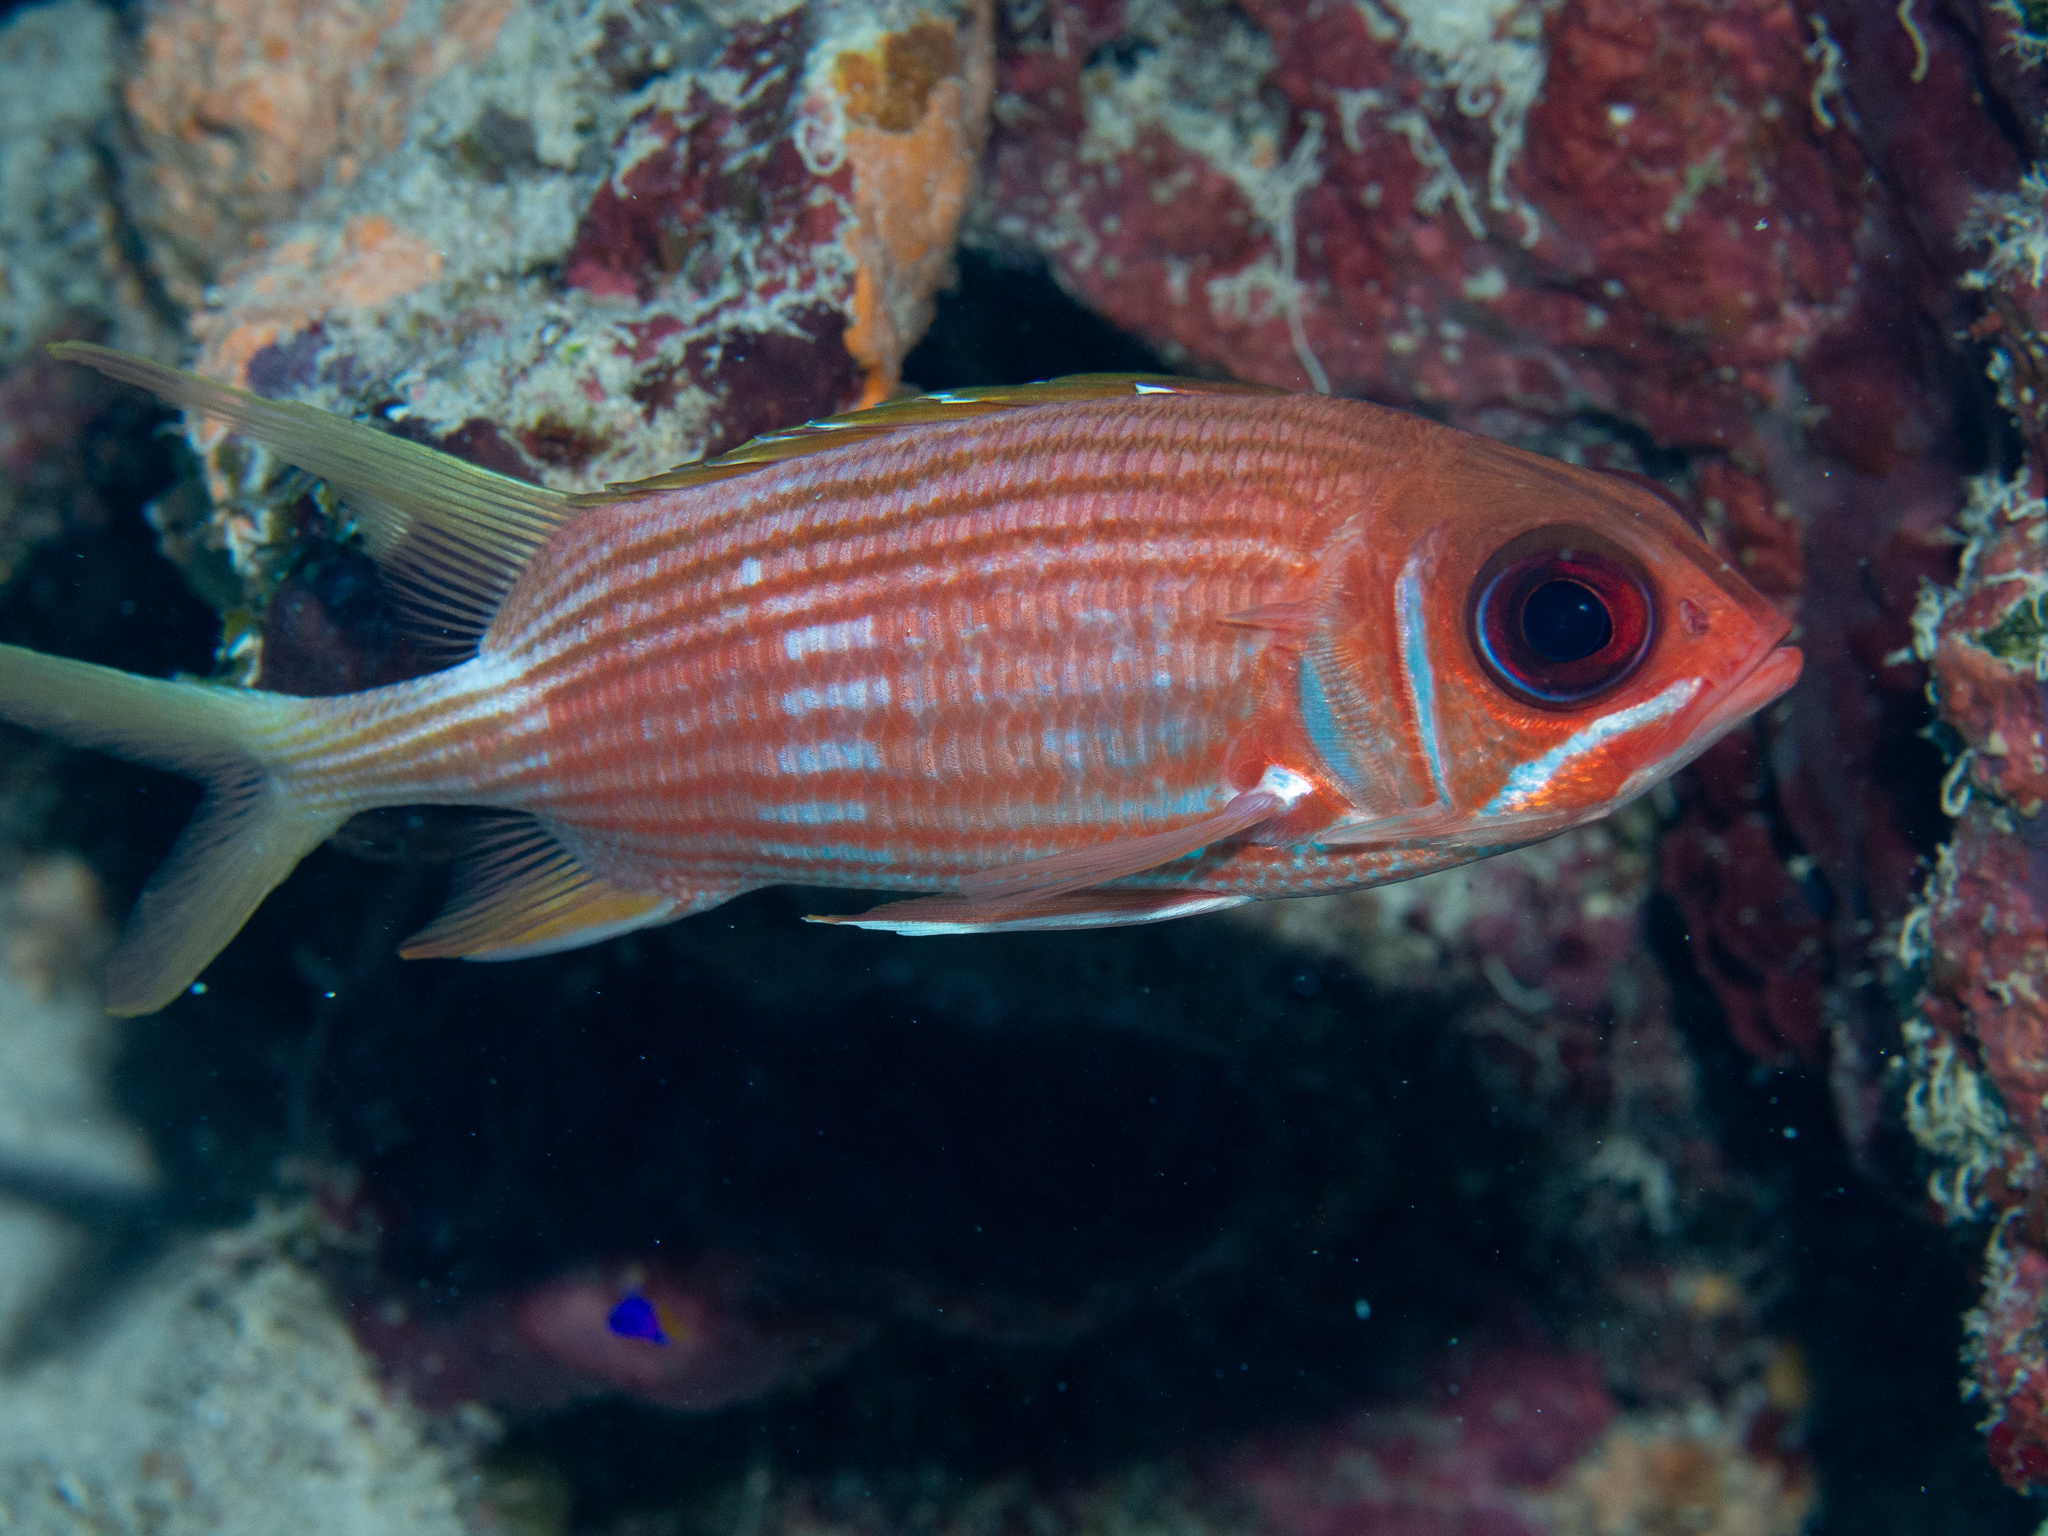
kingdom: Animalia
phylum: Chordata
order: Beryciformes
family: Holocentridae
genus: Holocentrus
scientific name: Holocentrus rufus
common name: Longspine squirrelfish
